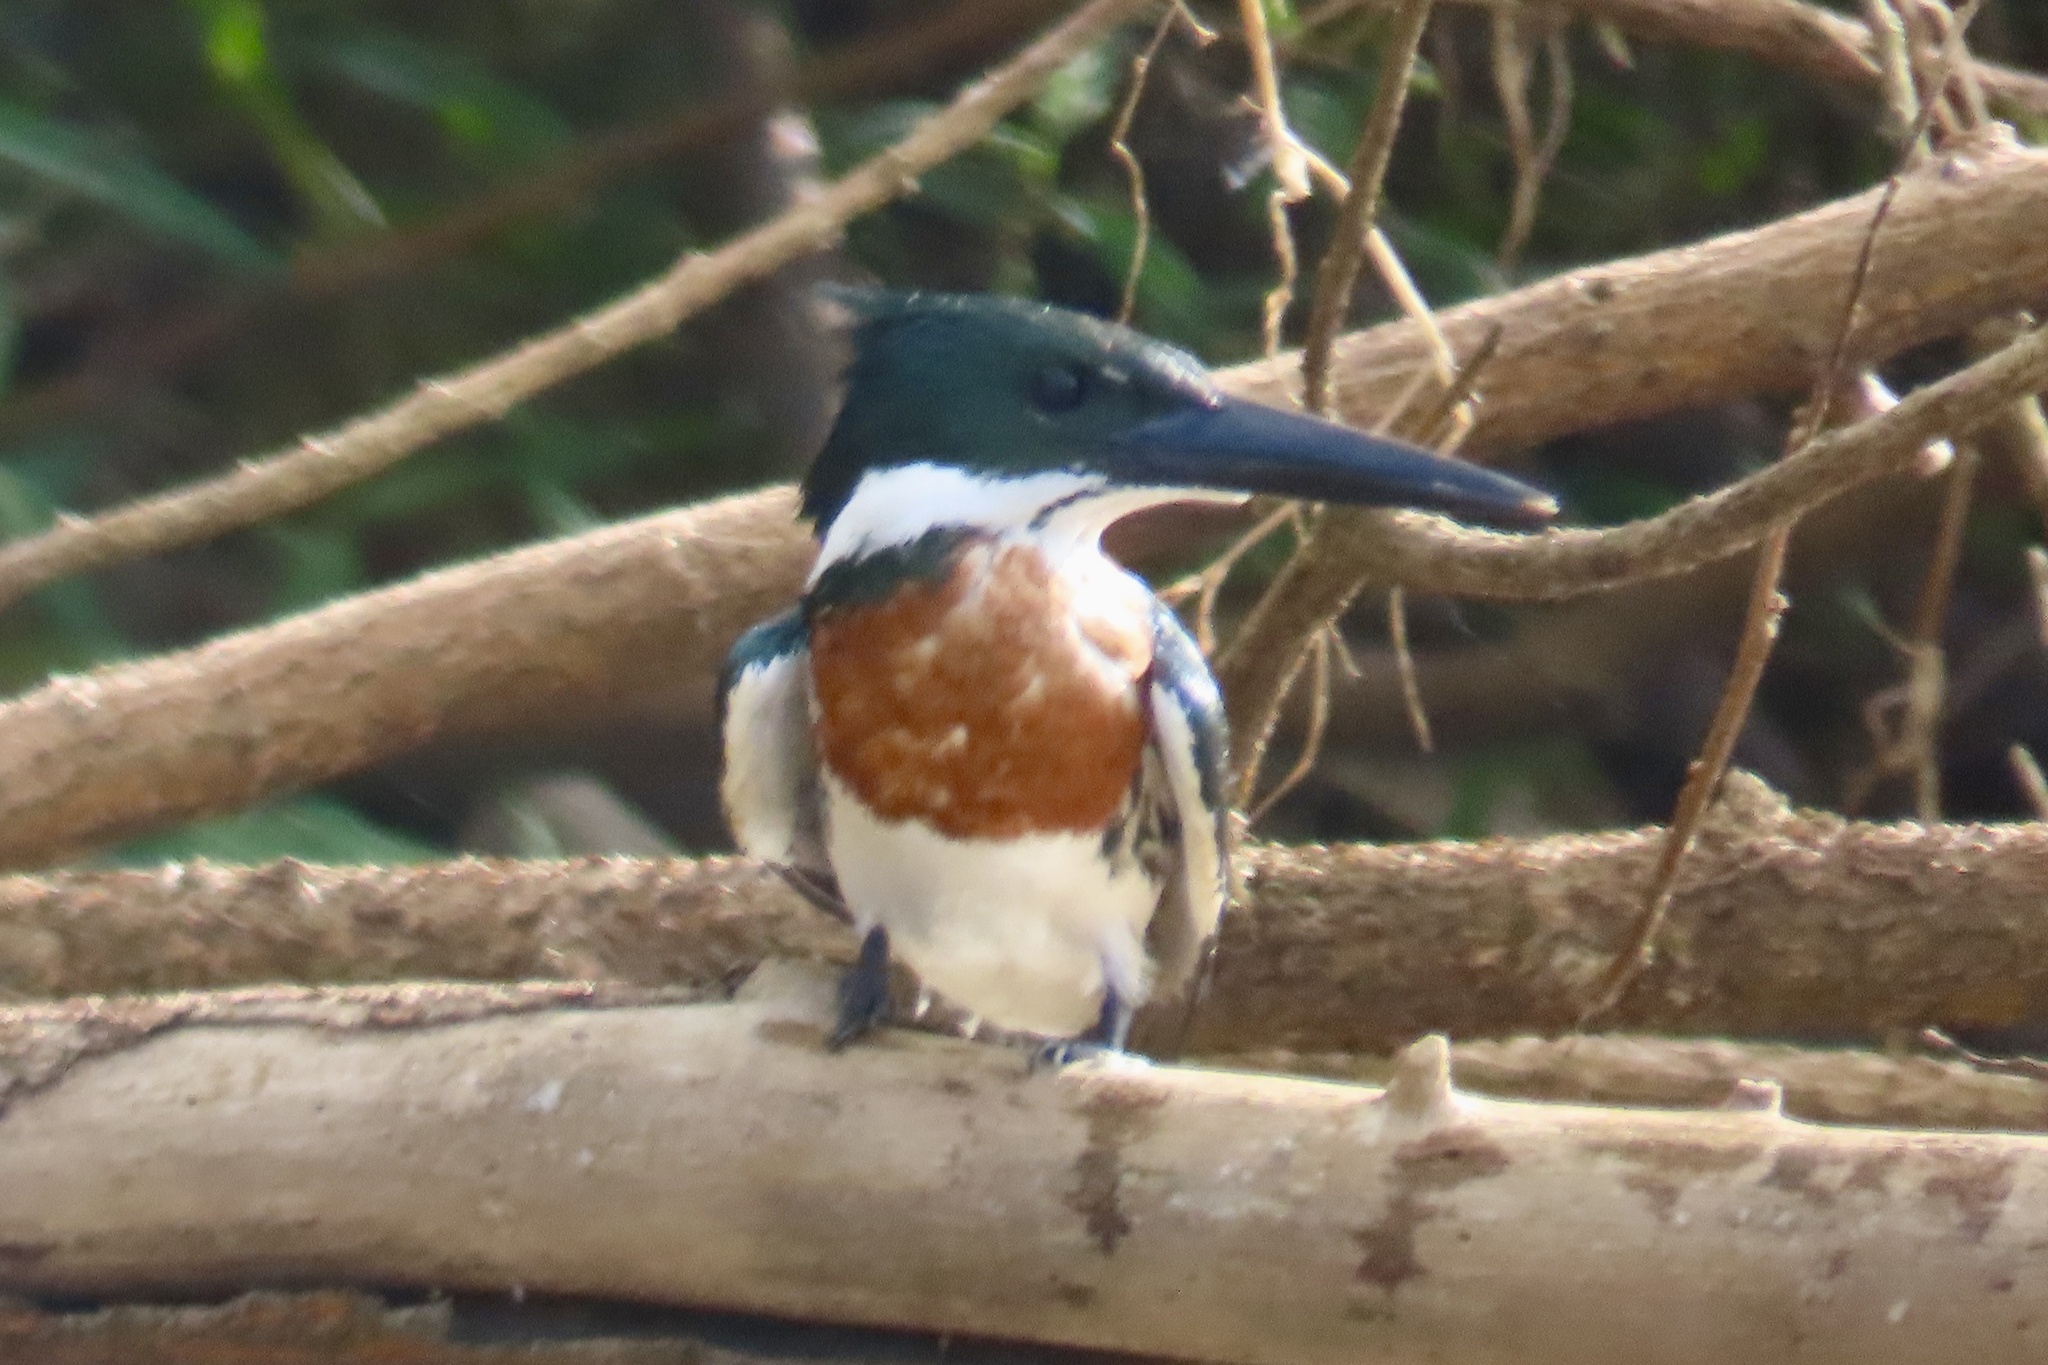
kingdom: Animalia
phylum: Chordata
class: Aves
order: Coraciiformes
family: Alcedinidae
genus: Chloroceryle
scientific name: Chloroceryle amazona
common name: Amazon kingfisher
